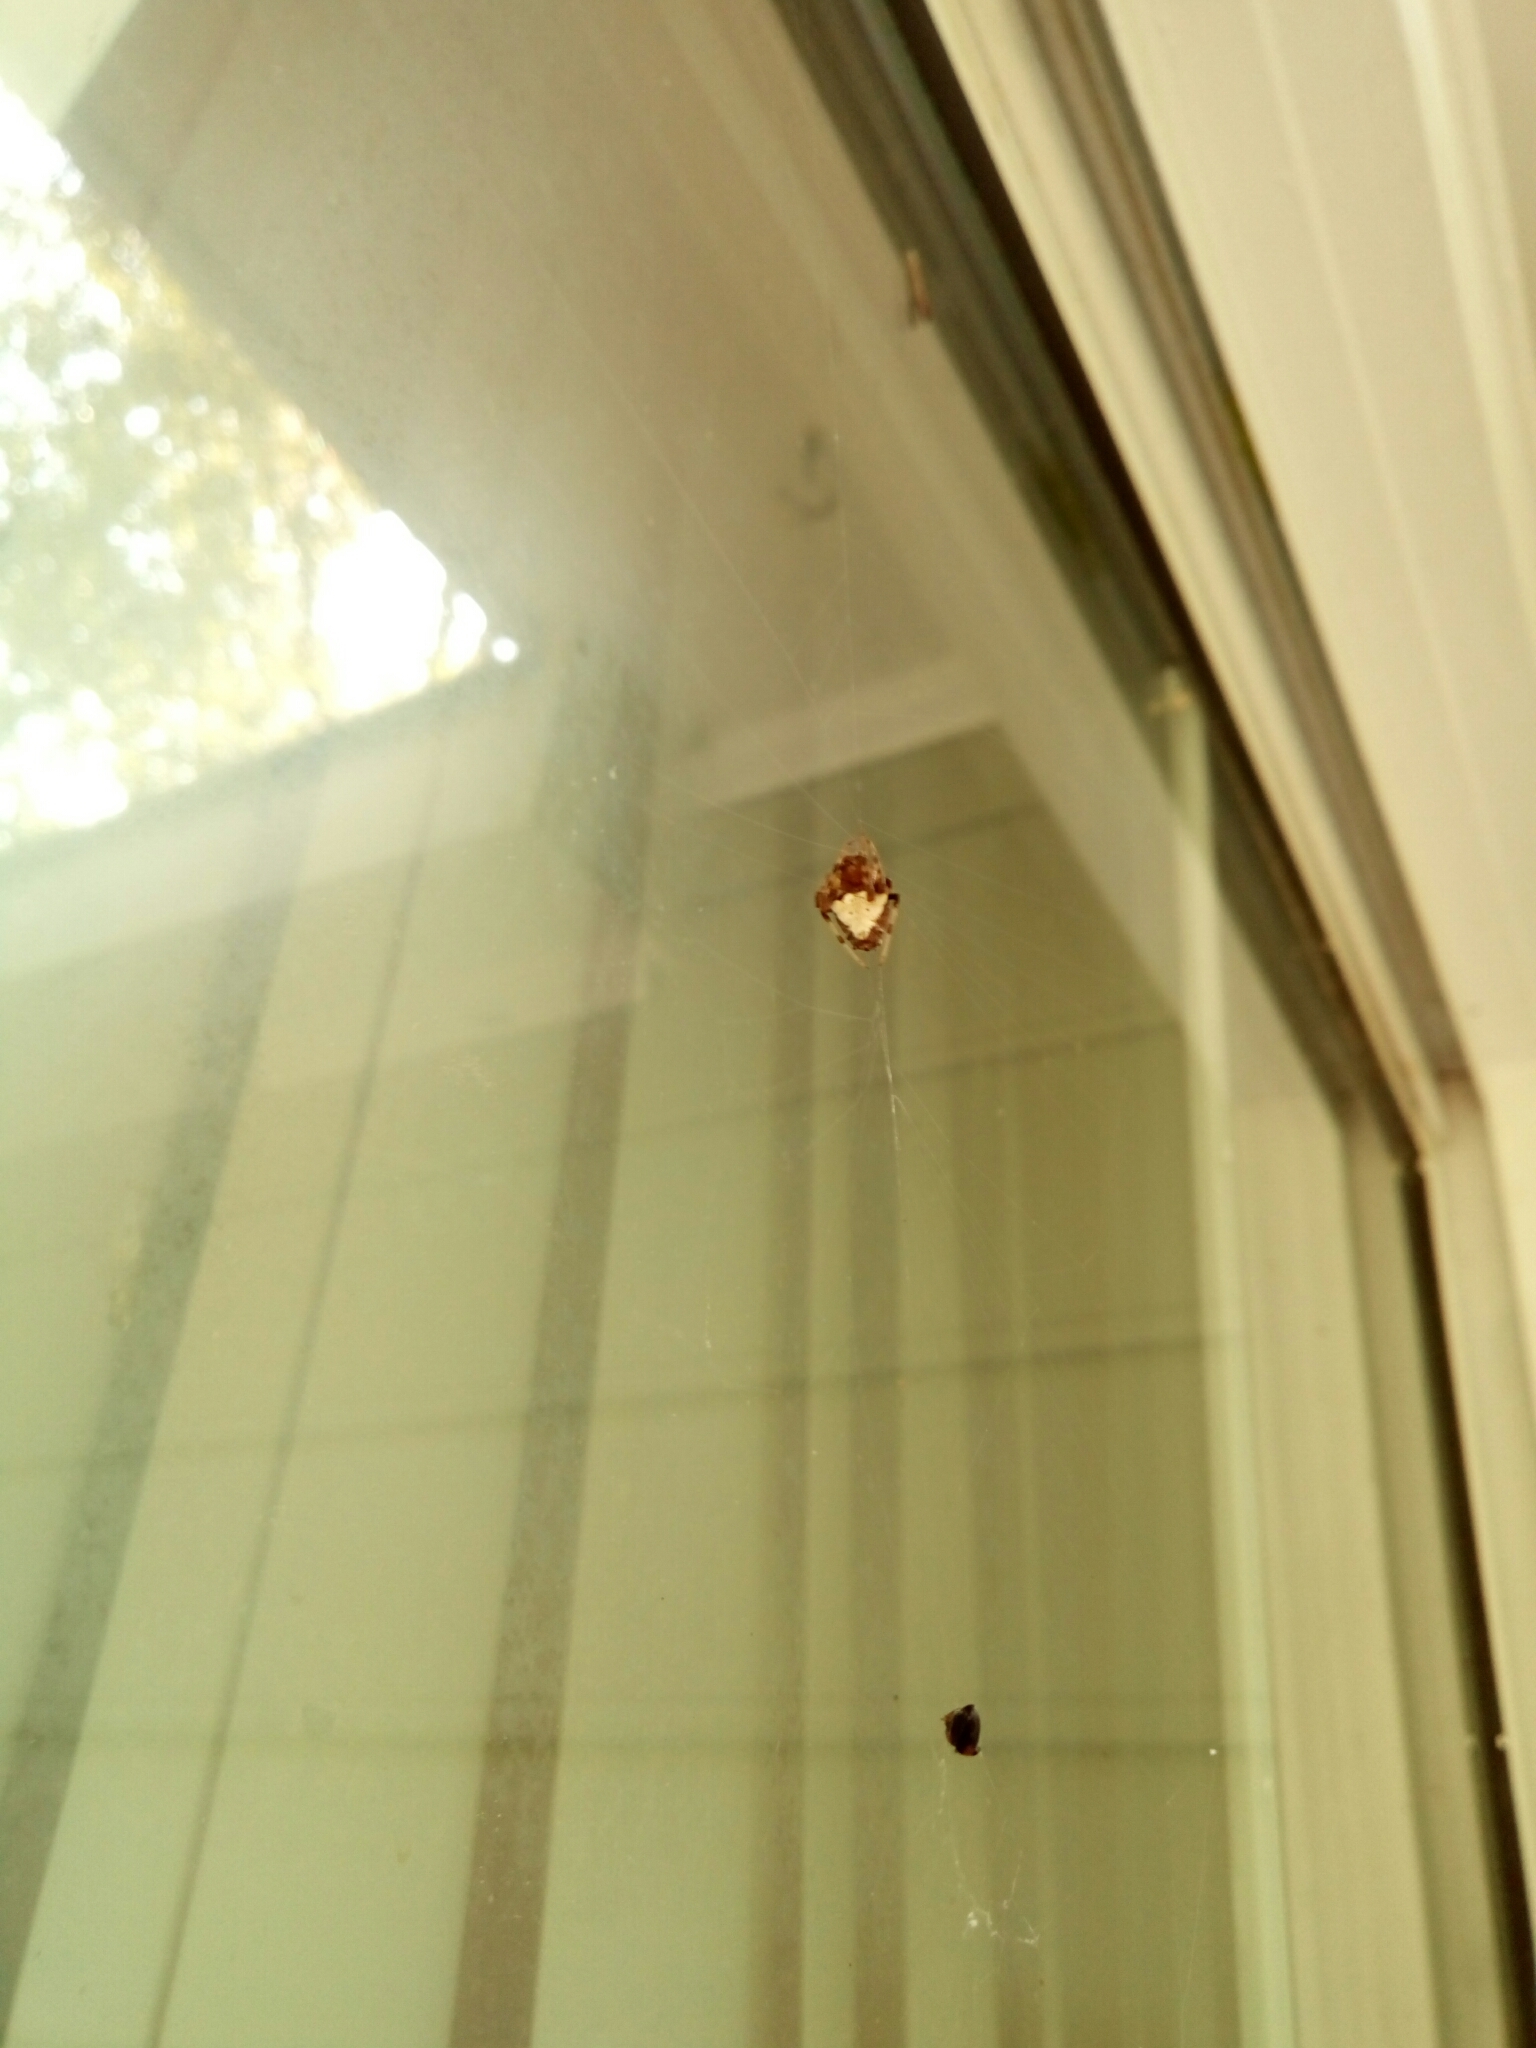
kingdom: Animalia
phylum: Arthropoda
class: Arachnida
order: Araneae
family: Araneidae
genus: Verrucosa
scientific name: Verrucosa arenata
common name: Orb weavers
